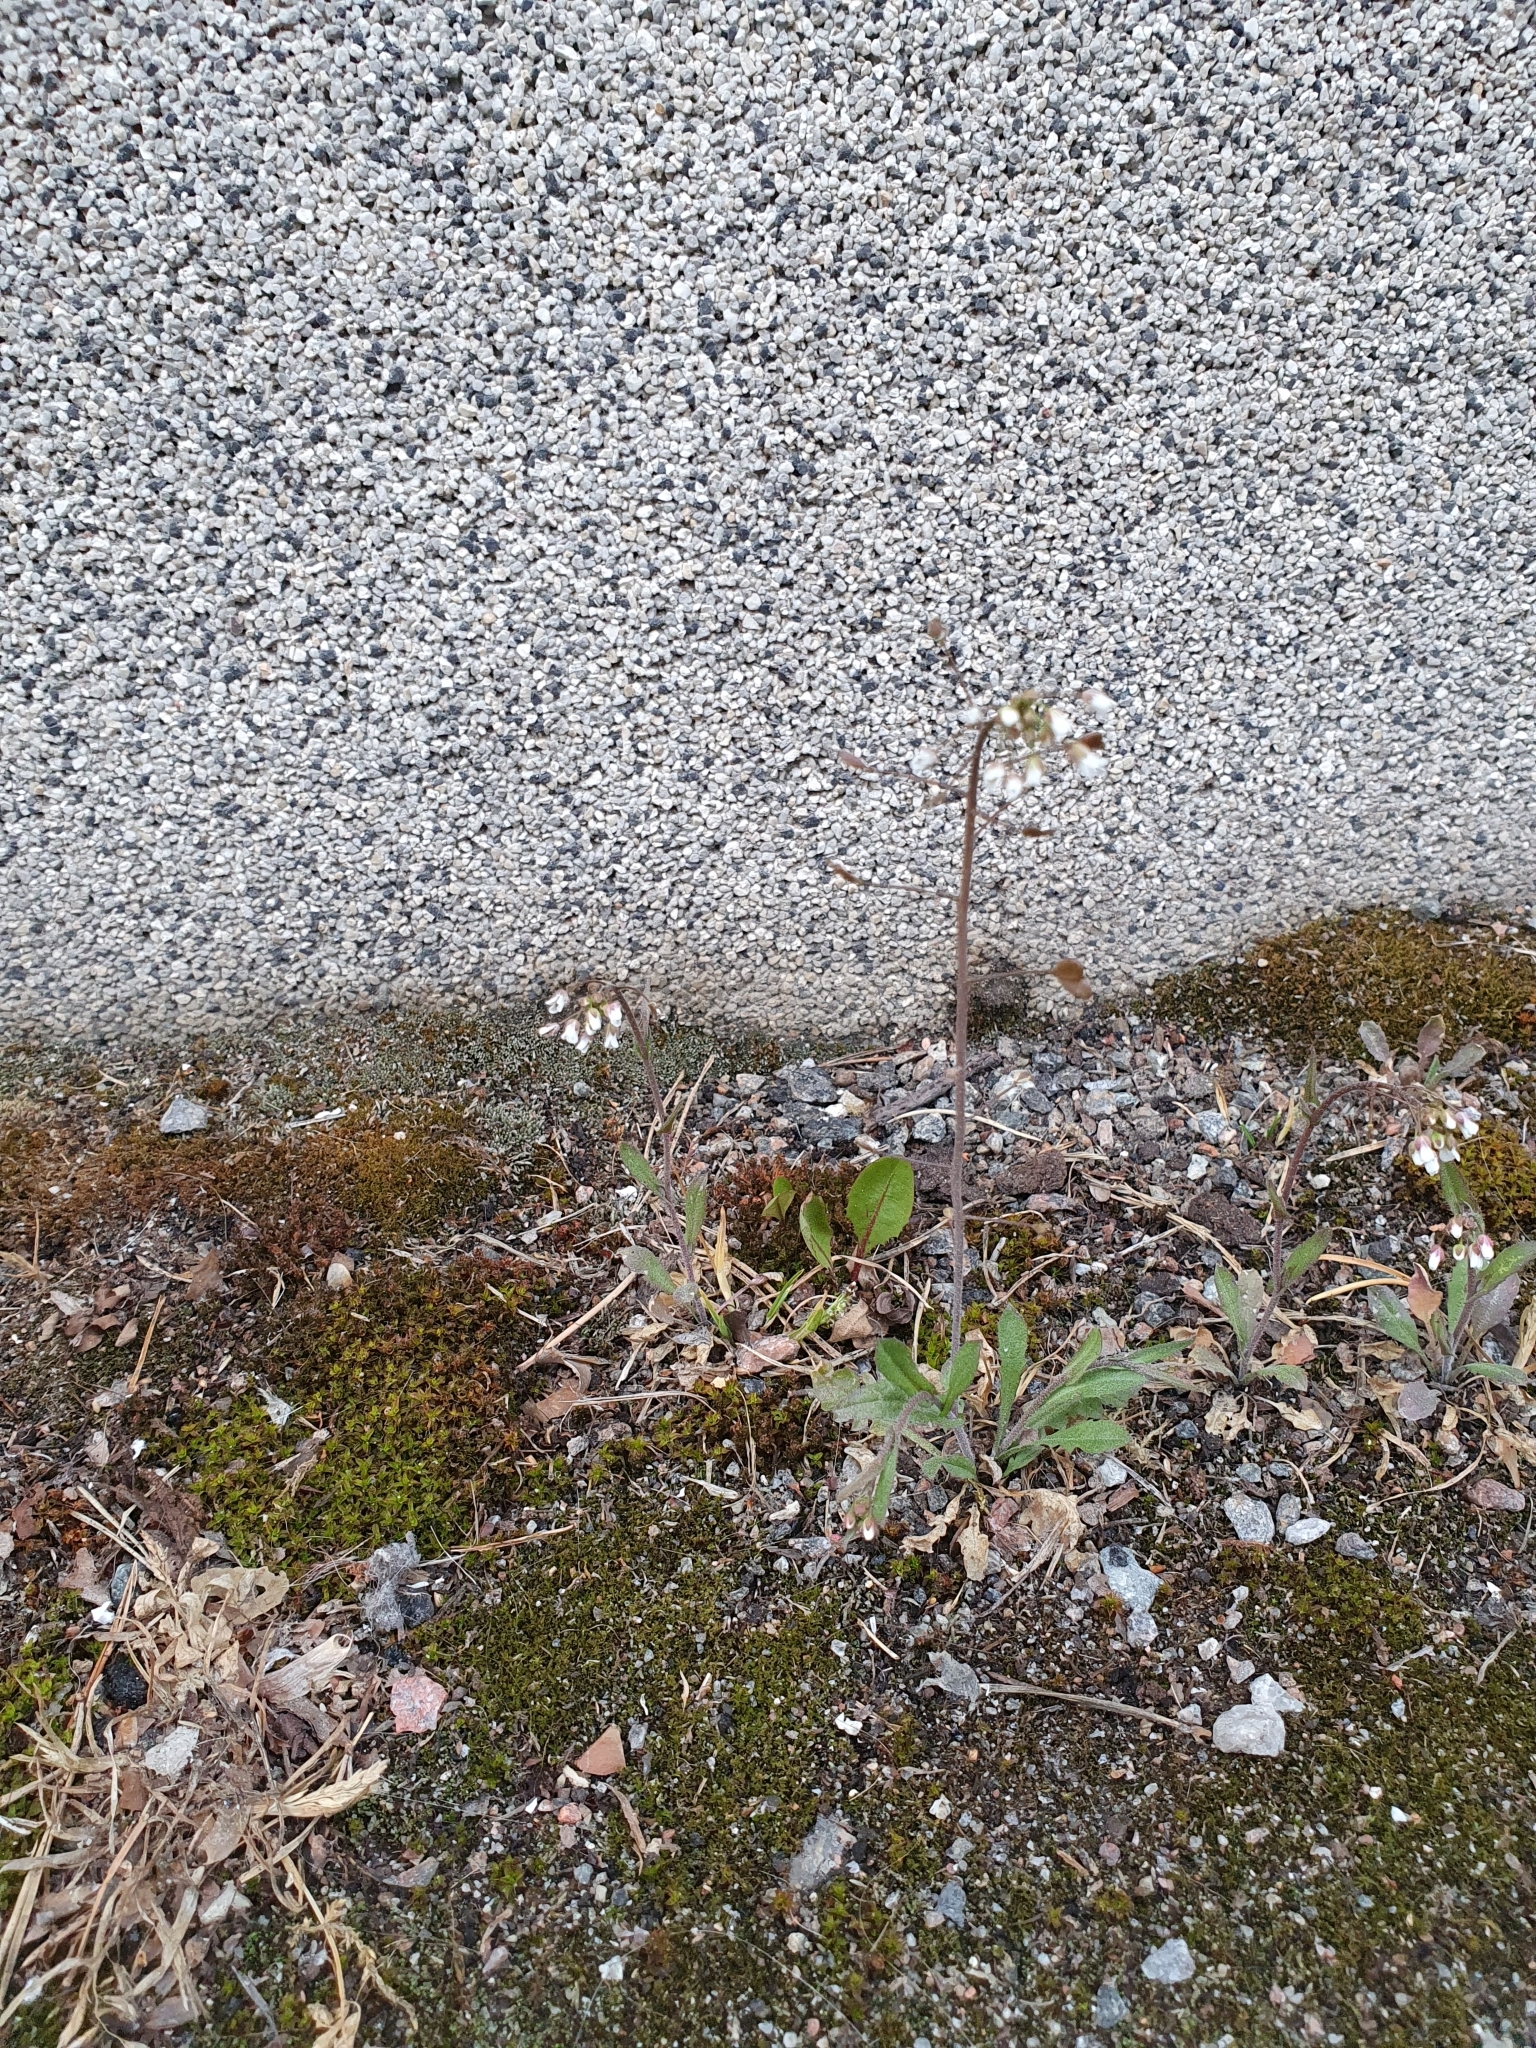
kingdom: Plantae
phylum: Tracheophyta
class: Magnoliopsida
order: Brassicales
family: Brassicaceae
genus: Capsella
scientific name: Capsella bursa-pastoris
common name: Shepherd's purse
